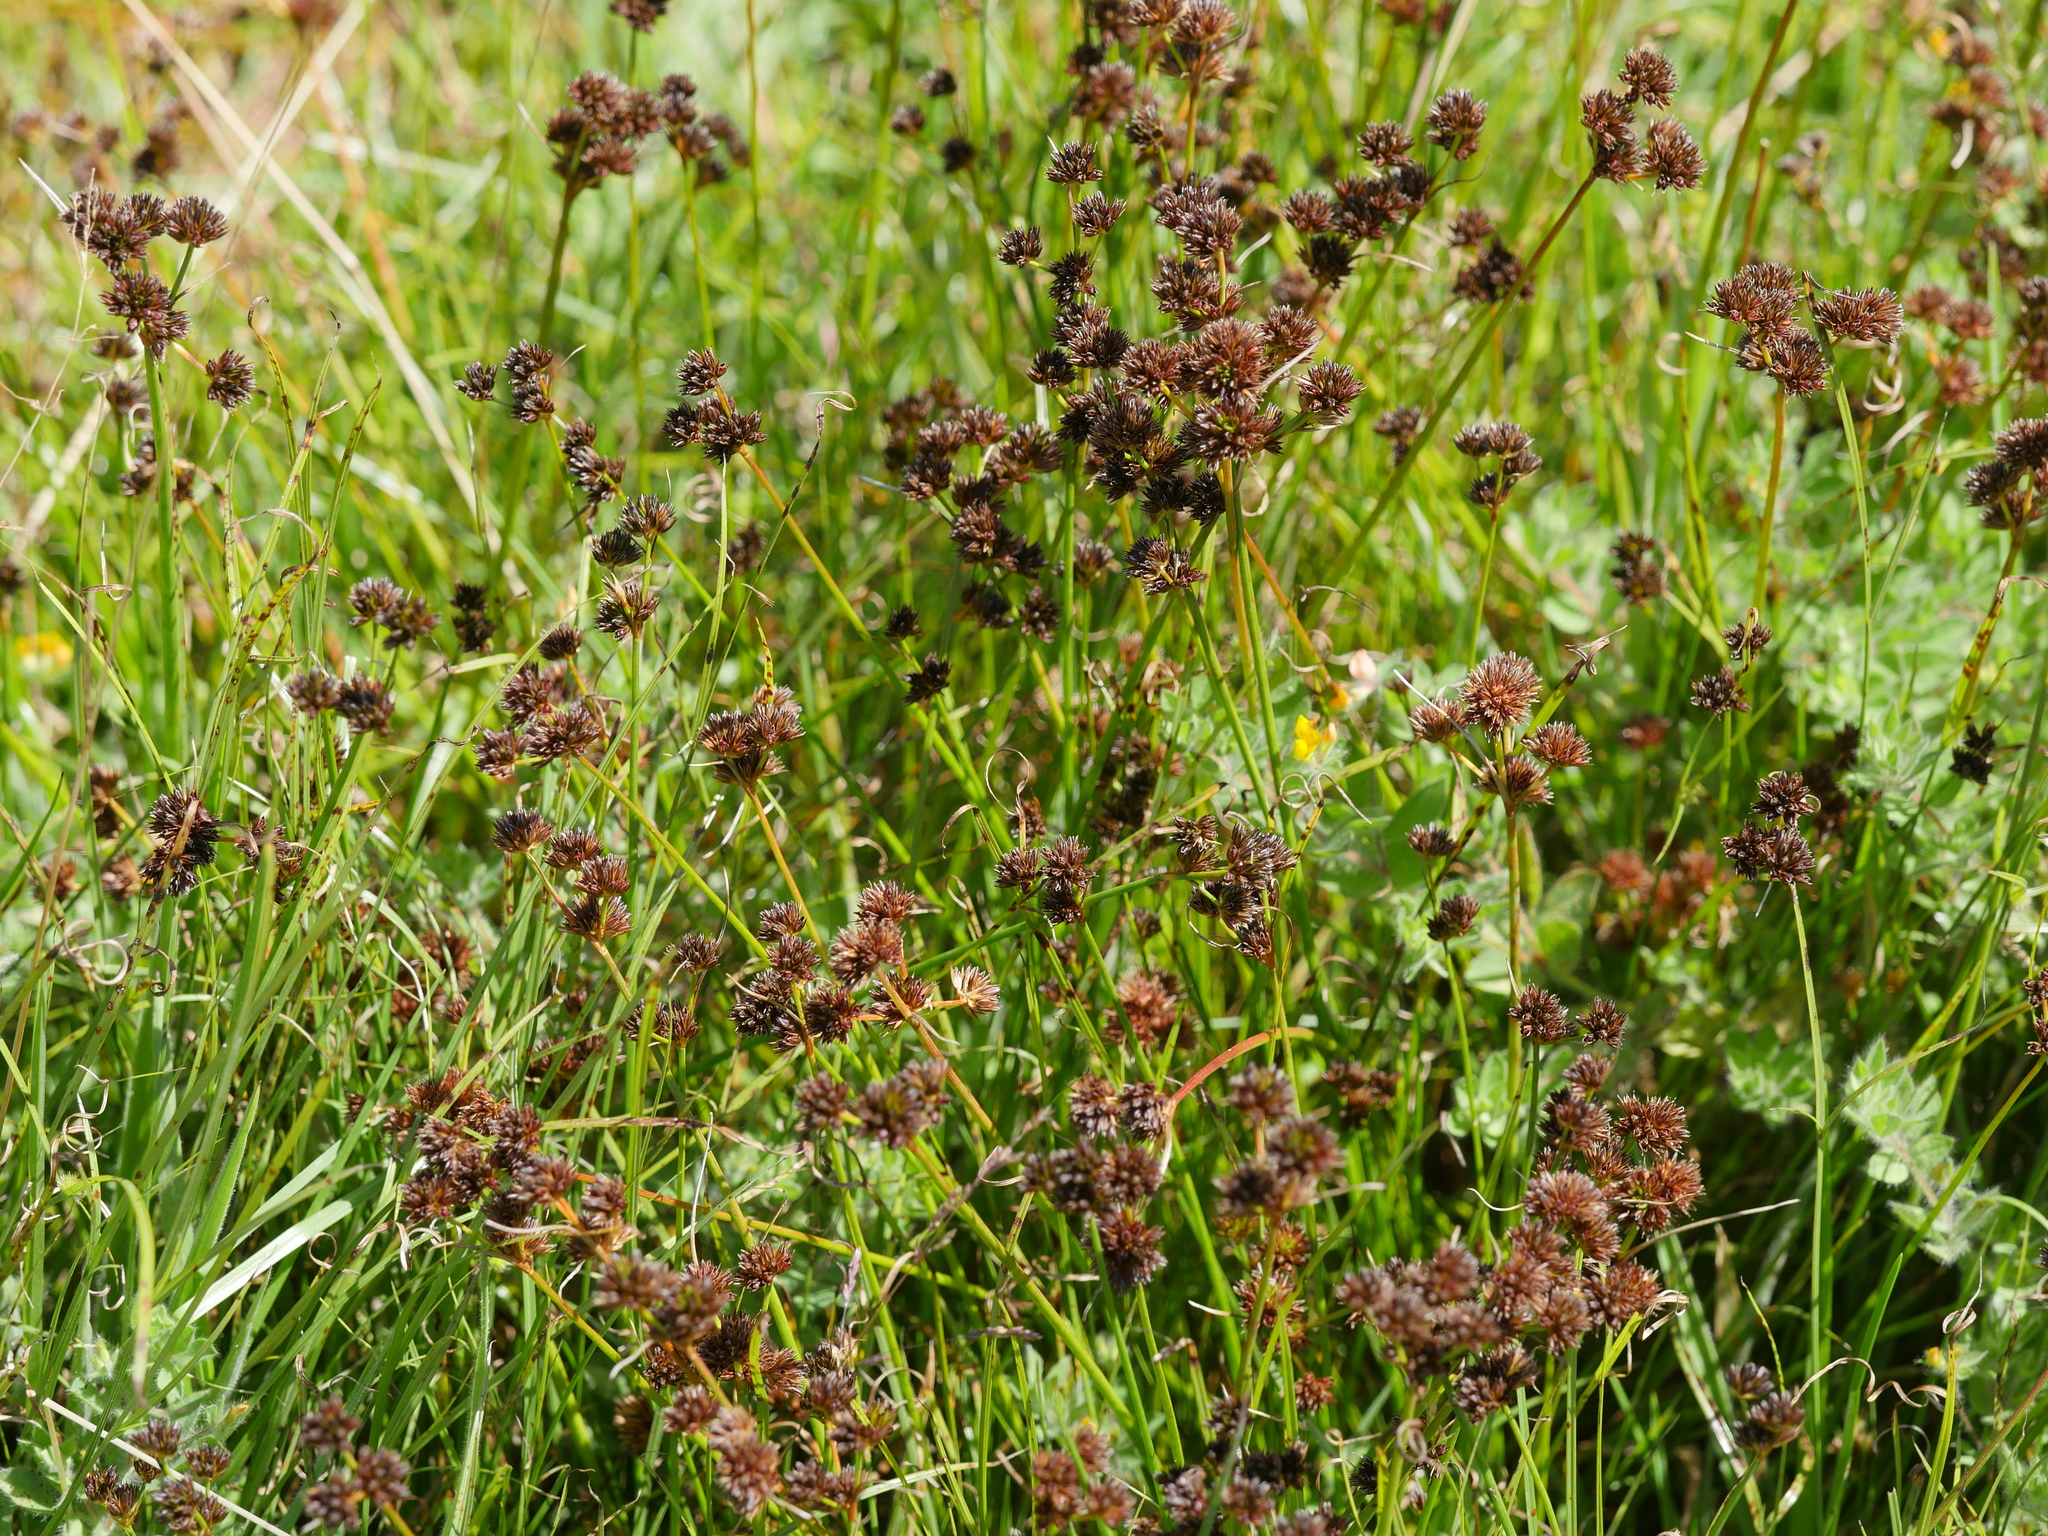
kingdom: Plantae
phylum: Tracheophyta
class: Liliopsida
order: Poales
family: Juncaceae
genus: Juncus
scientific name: Juncus sonderianus
